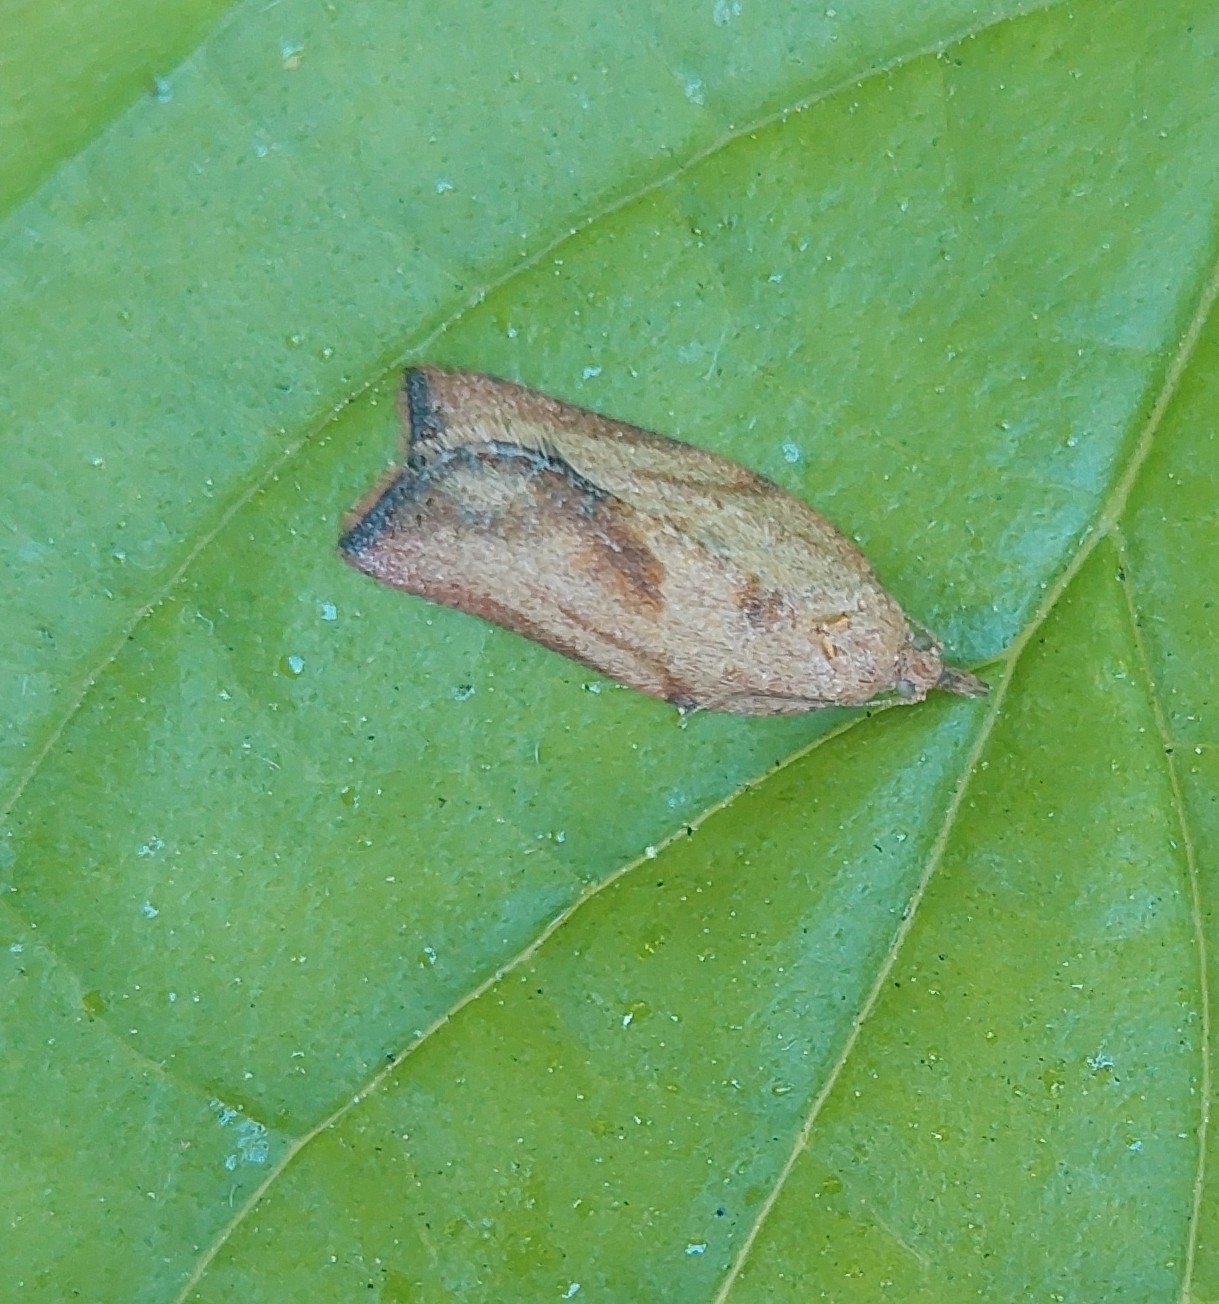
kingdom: Animalia
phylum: Arthropoda
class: Insecta
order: Lepidoptera
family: Tortricidae
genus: Epiphyas
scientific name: Epiphyas postvittana
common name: Light brown apple moth
